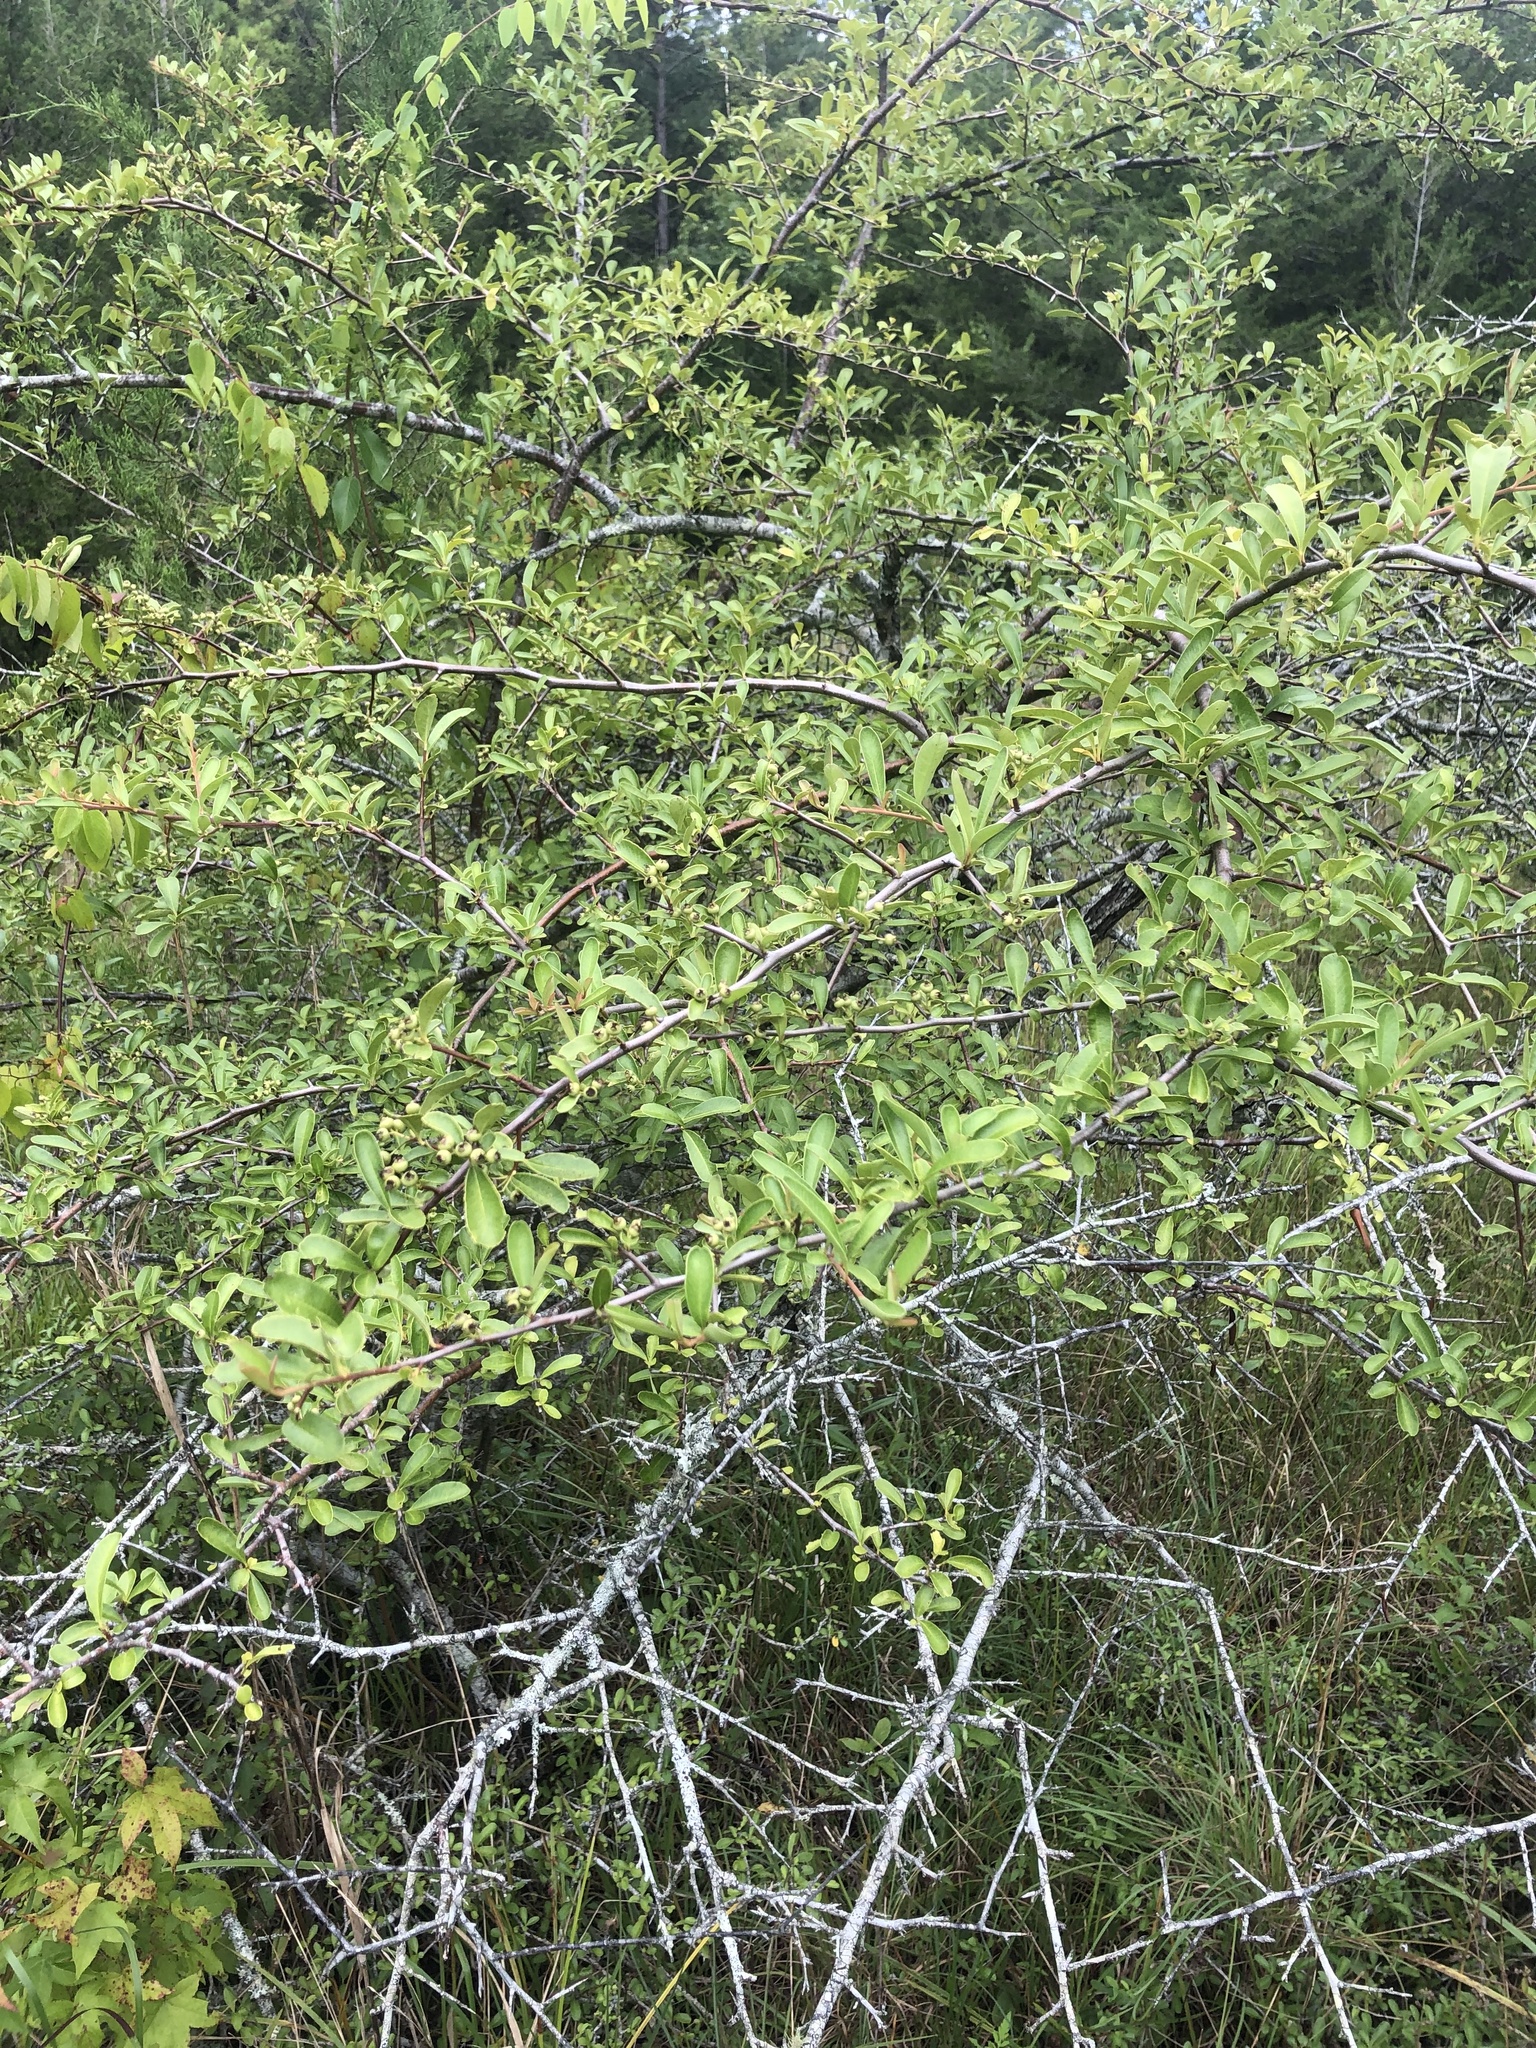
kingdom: Plantae
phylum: Tracheophyta
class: Magnoliopsida
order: Rosales
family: Rosaceae
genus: Pyracantha
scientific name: Pyracantha fortuneana
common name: Chinese firethorn
